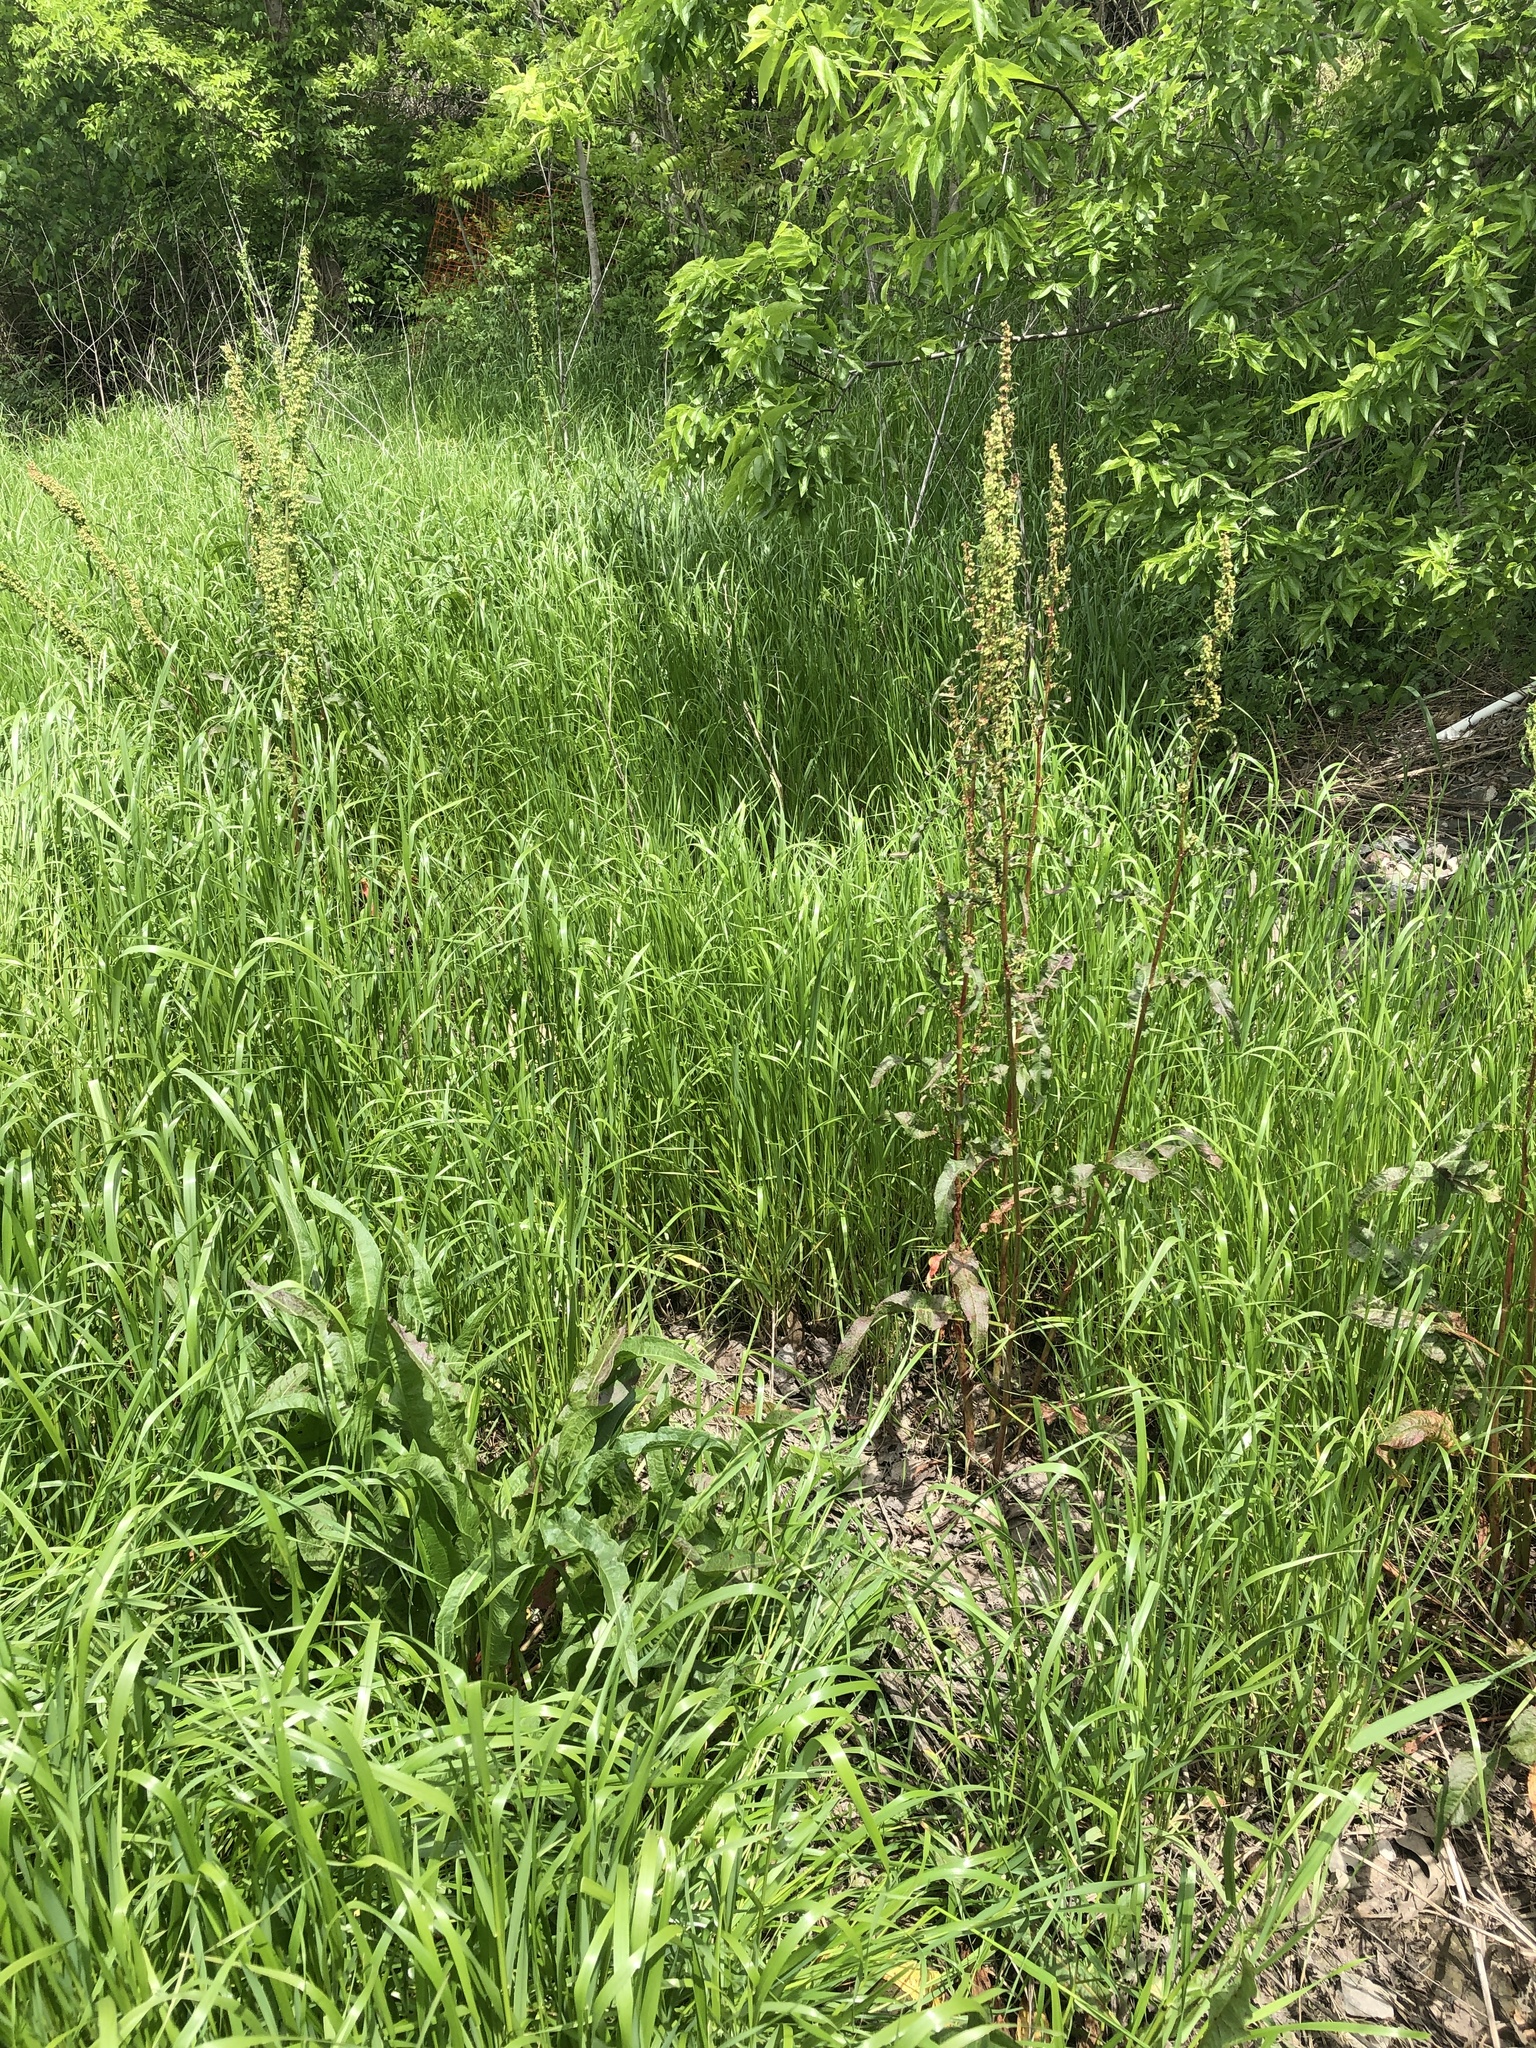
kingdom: Plantae
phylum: Tracheophyta
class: Magnoliopsida
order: Caryophyllales
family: Polygonaceae
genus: Rumex
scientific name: Rumex crispus
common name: Curled dock
